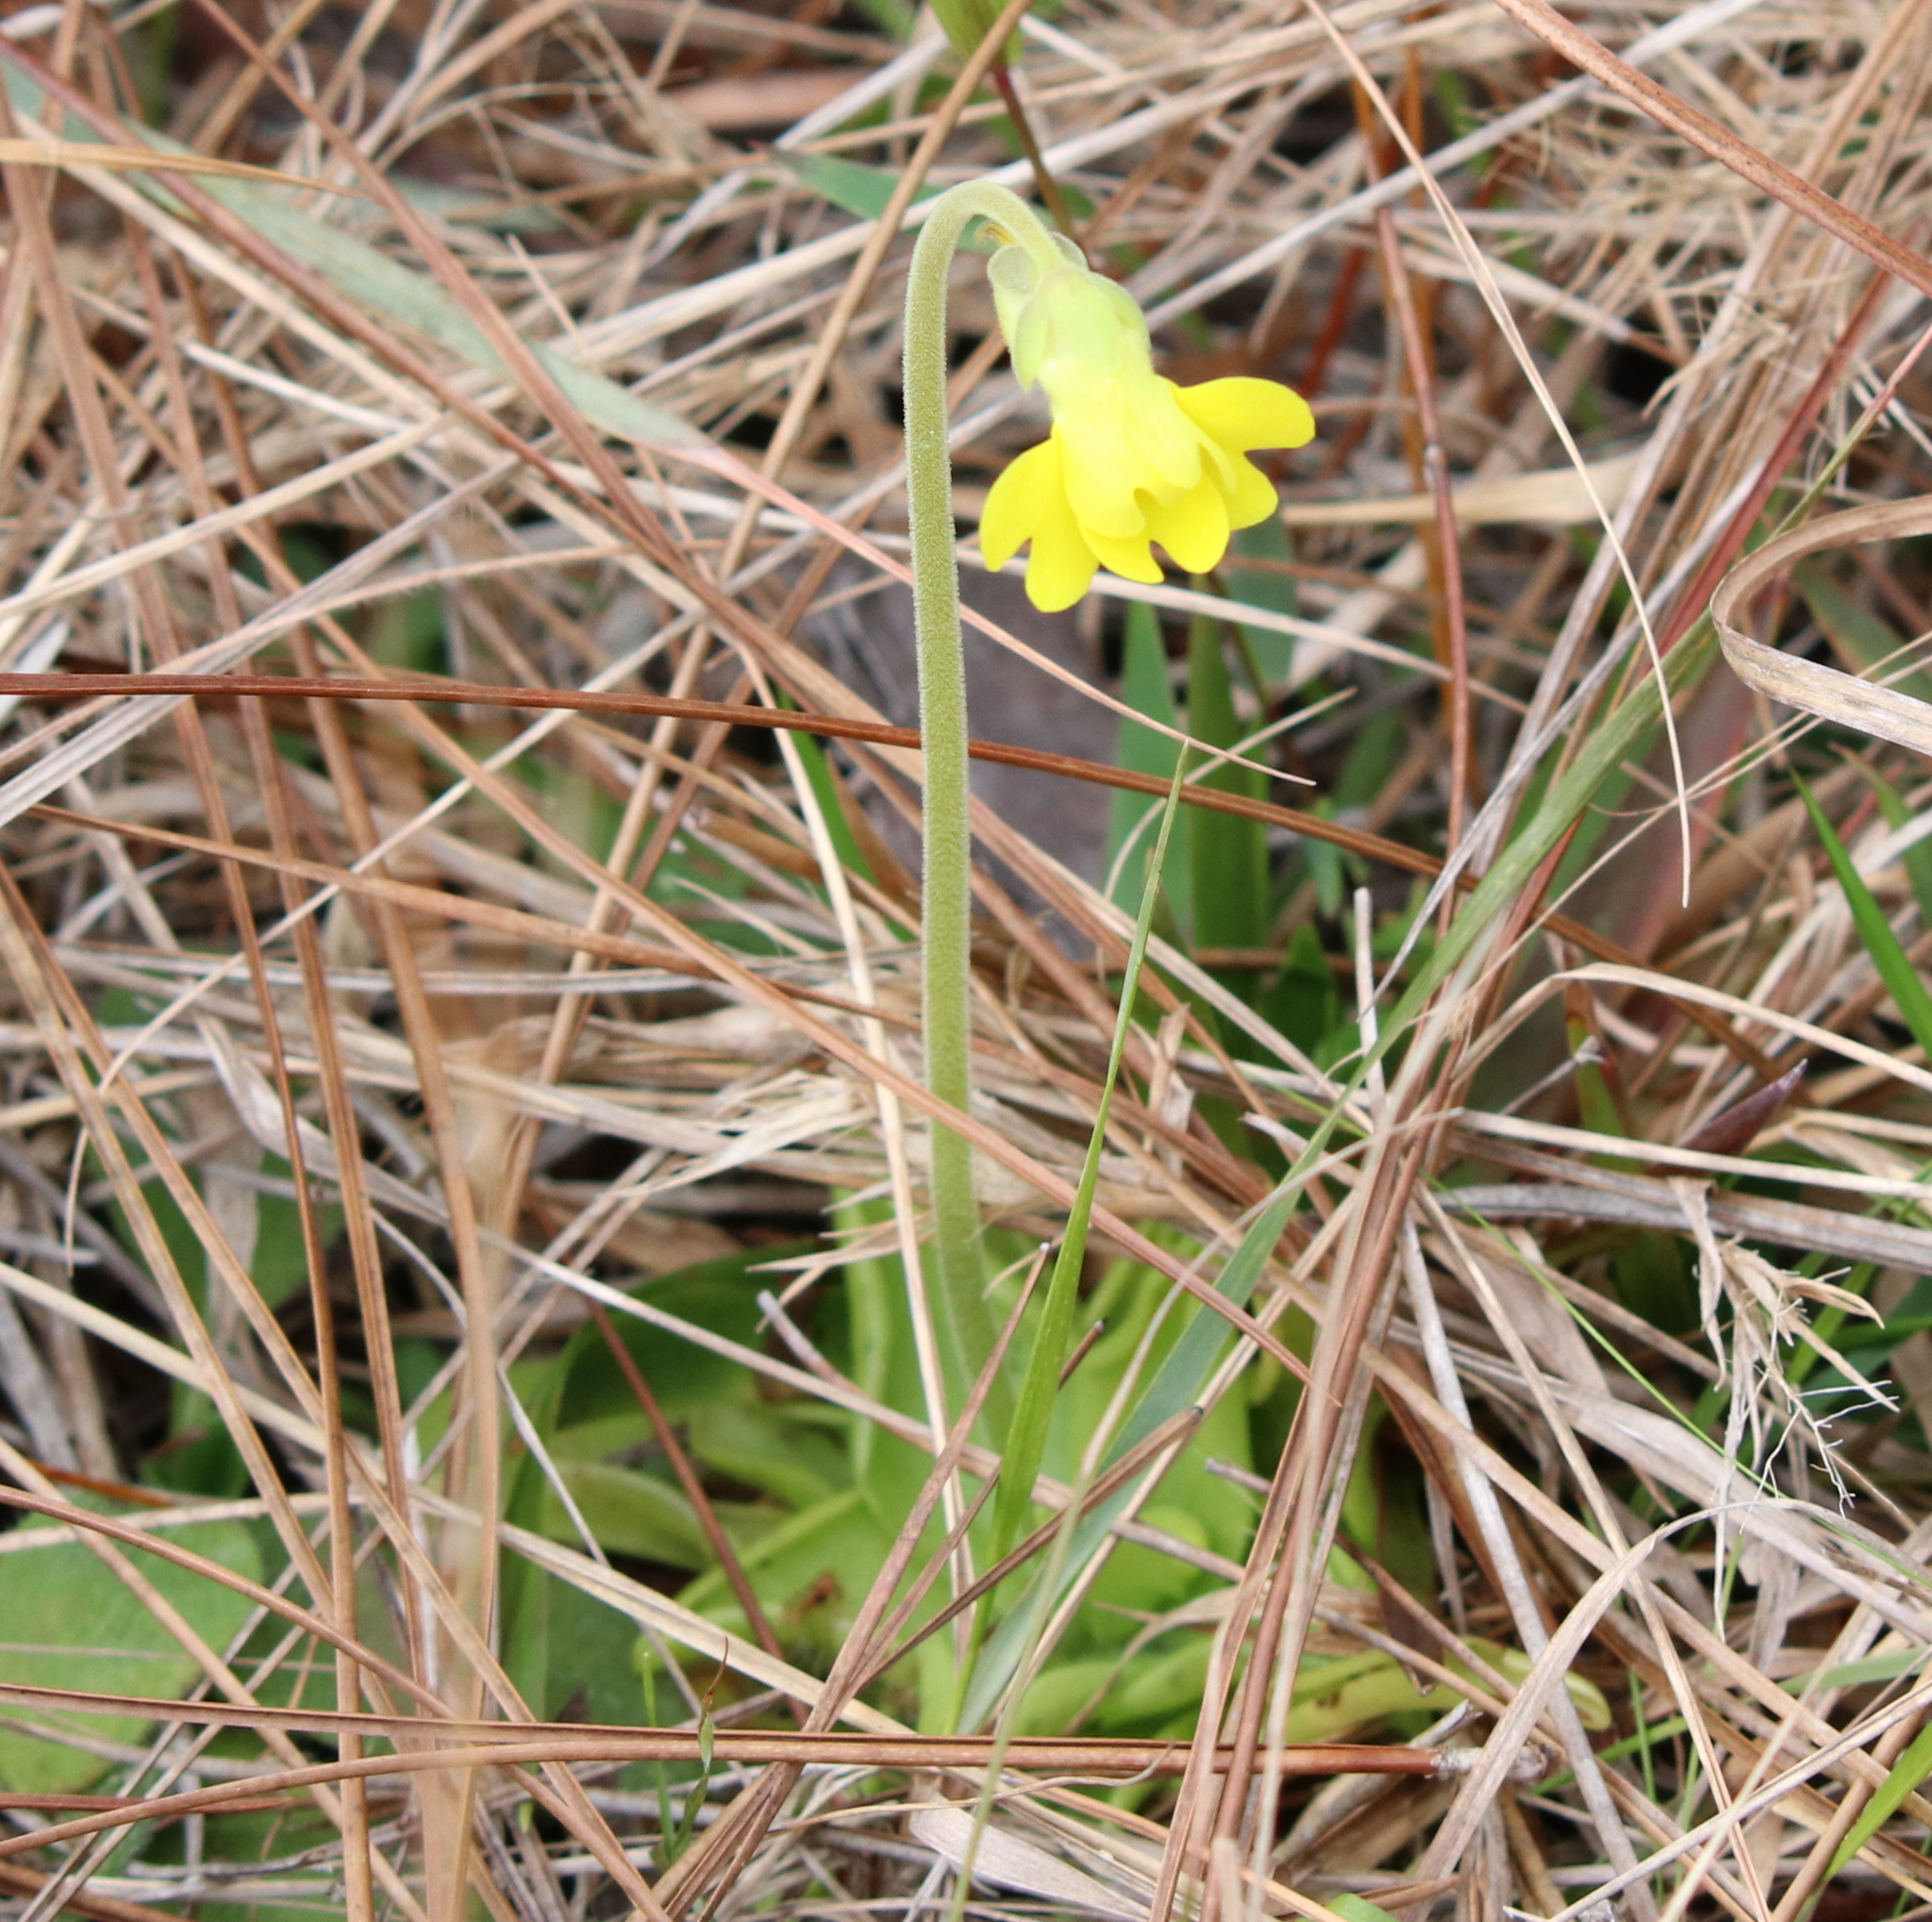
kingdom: Plantae
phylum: Tracheophyta
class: Magnoliopsida
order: Lamiales
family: Lentibulariaceae
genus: Pinguicula
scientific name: Pinguicula lutea
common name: Yellow butterwort
